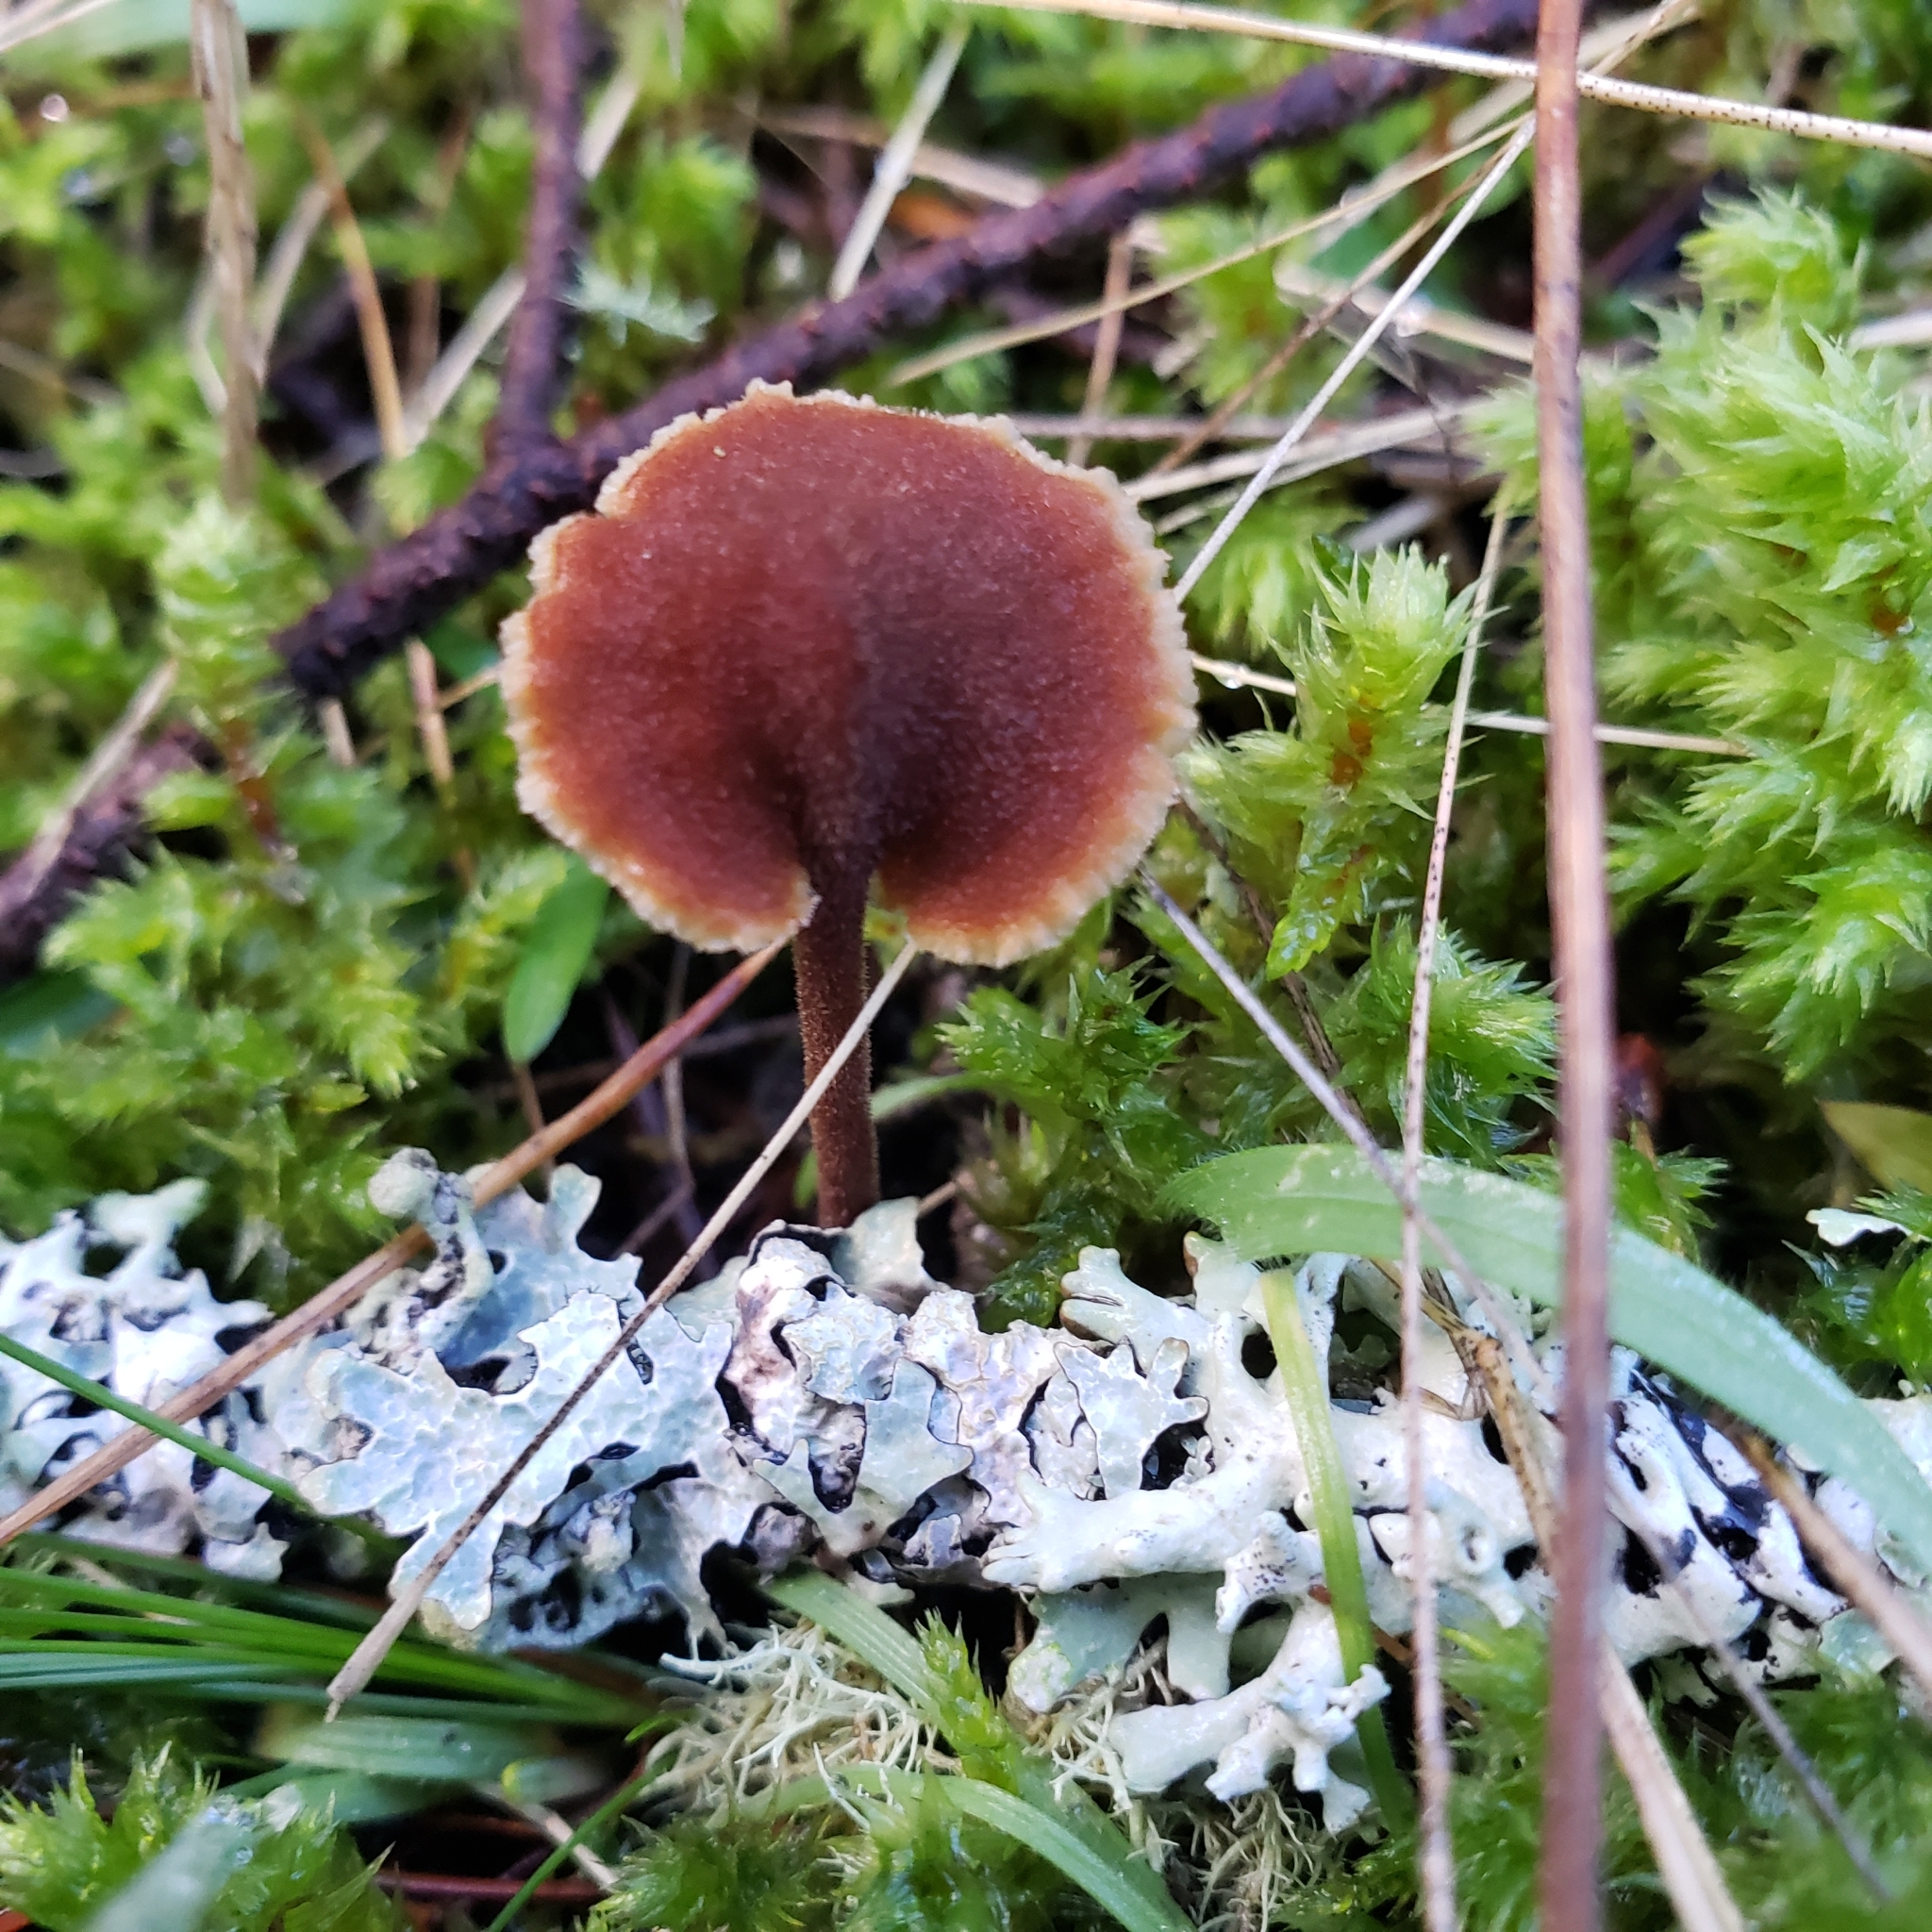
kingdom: Fungi
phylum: Basidiomycota
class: Agaricomycetes
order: Russulales
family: Auriscalpiaceae
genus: Auriscalpium
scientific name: Auriscalpium vulgare
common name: Earpick fungus
